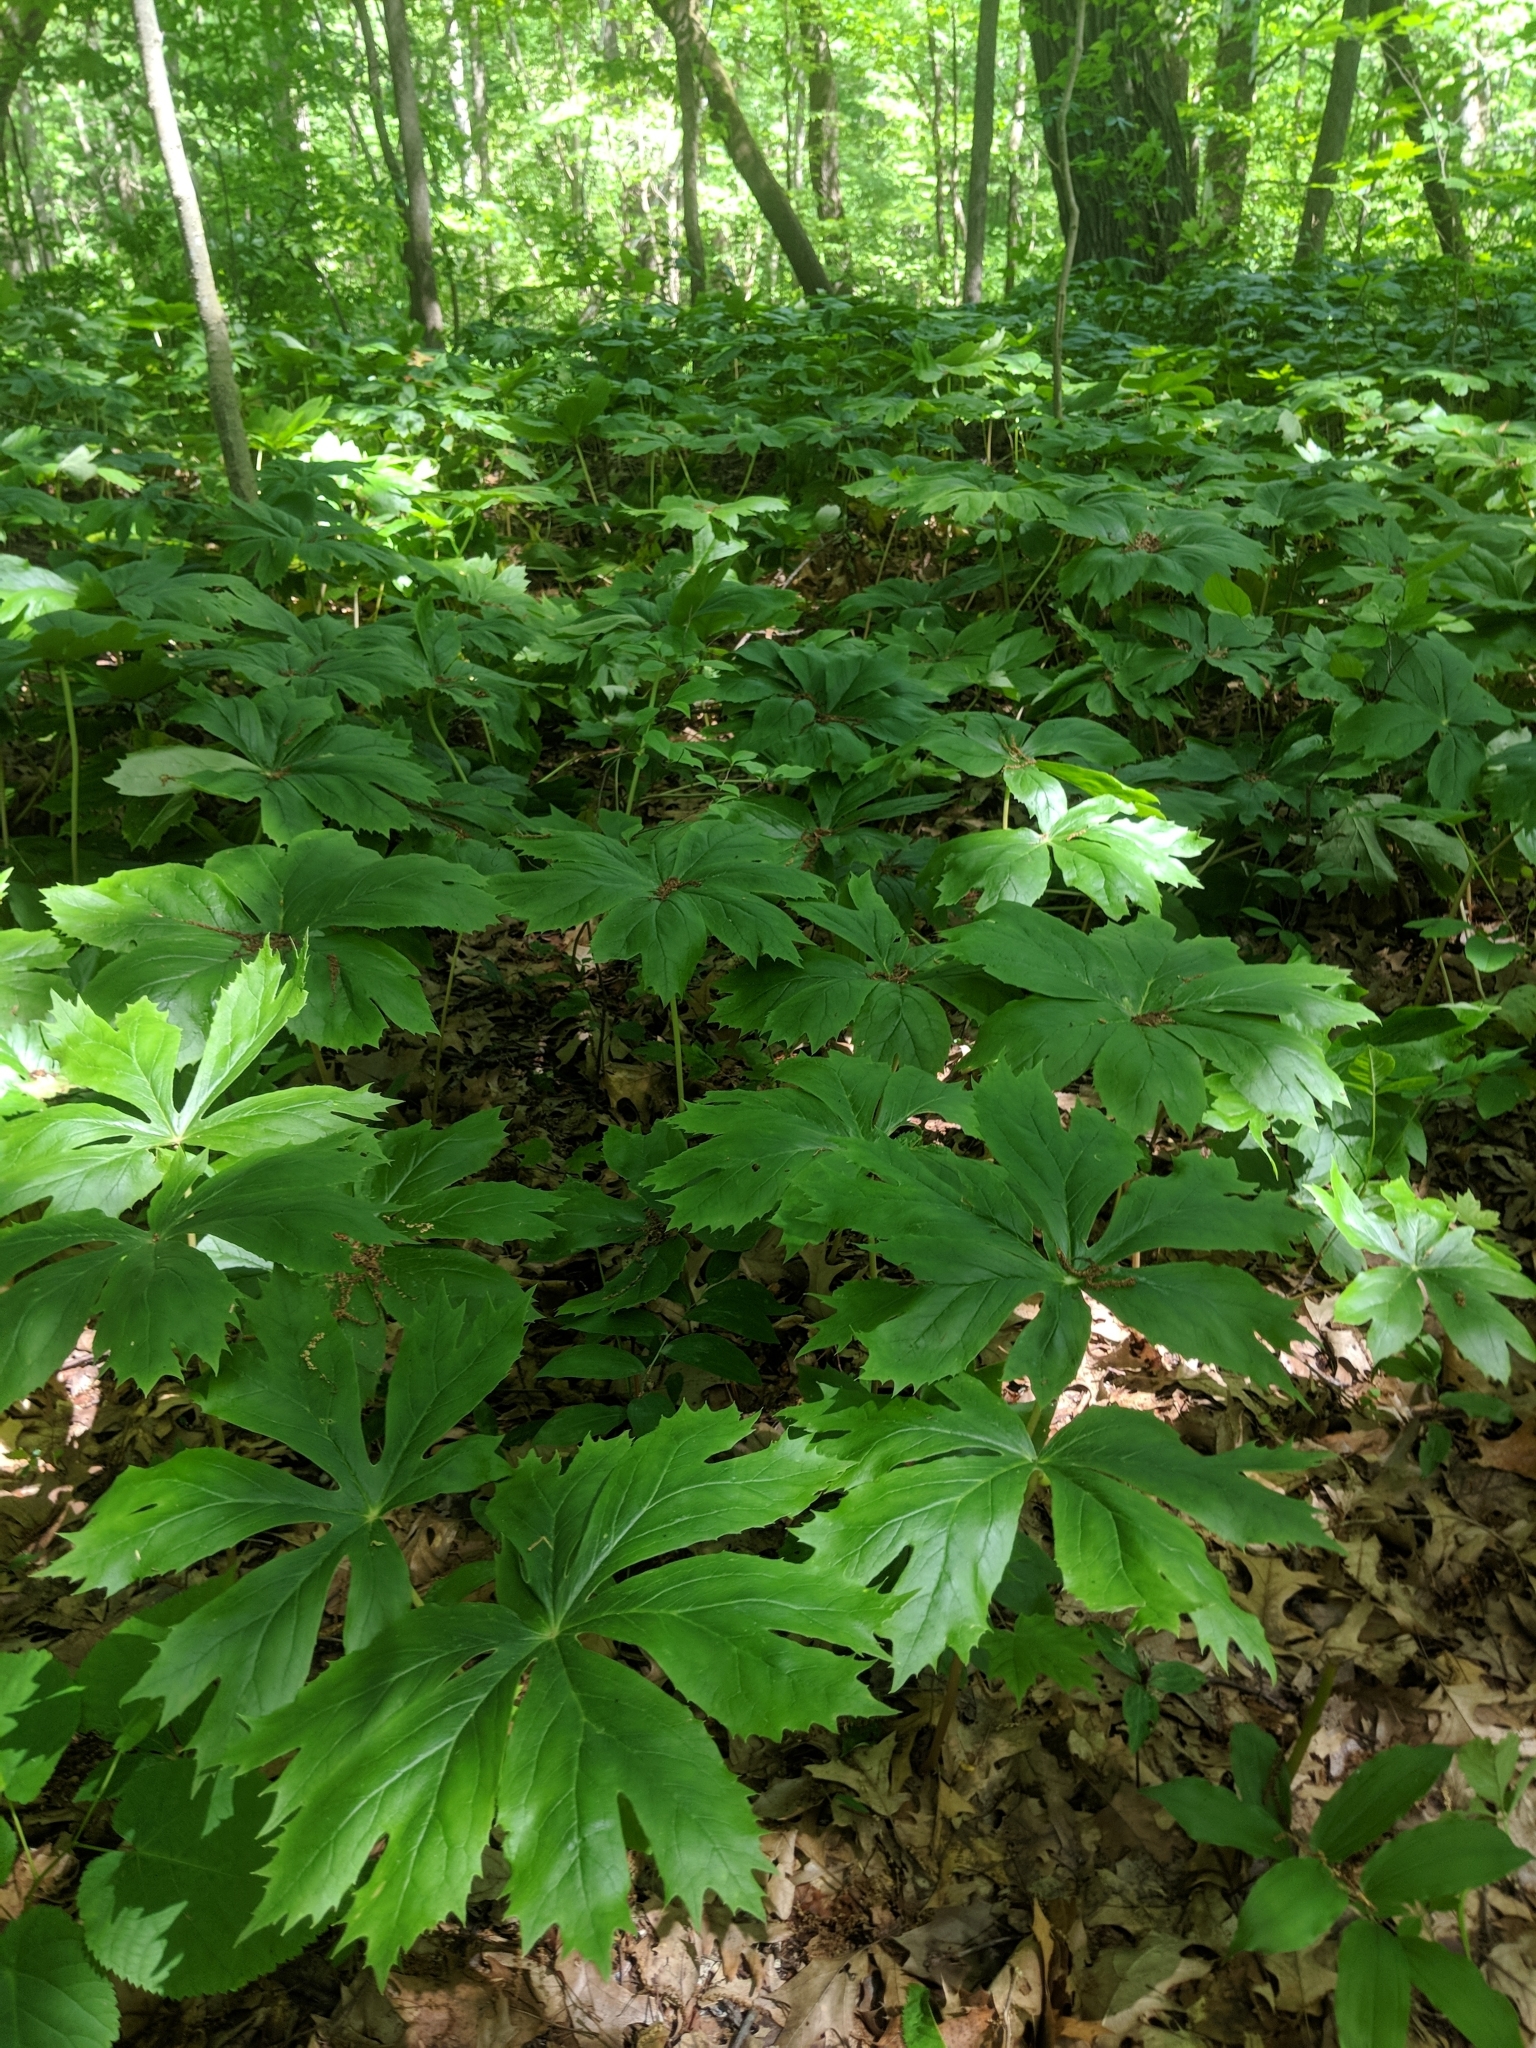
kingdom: Plantae
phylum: Tracheophyta
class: Magnoliopsida
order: Ranunculales
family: Berberidaceae
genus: Podophyllum
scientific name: Podophyllum peltatum
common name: Wild mandrake
